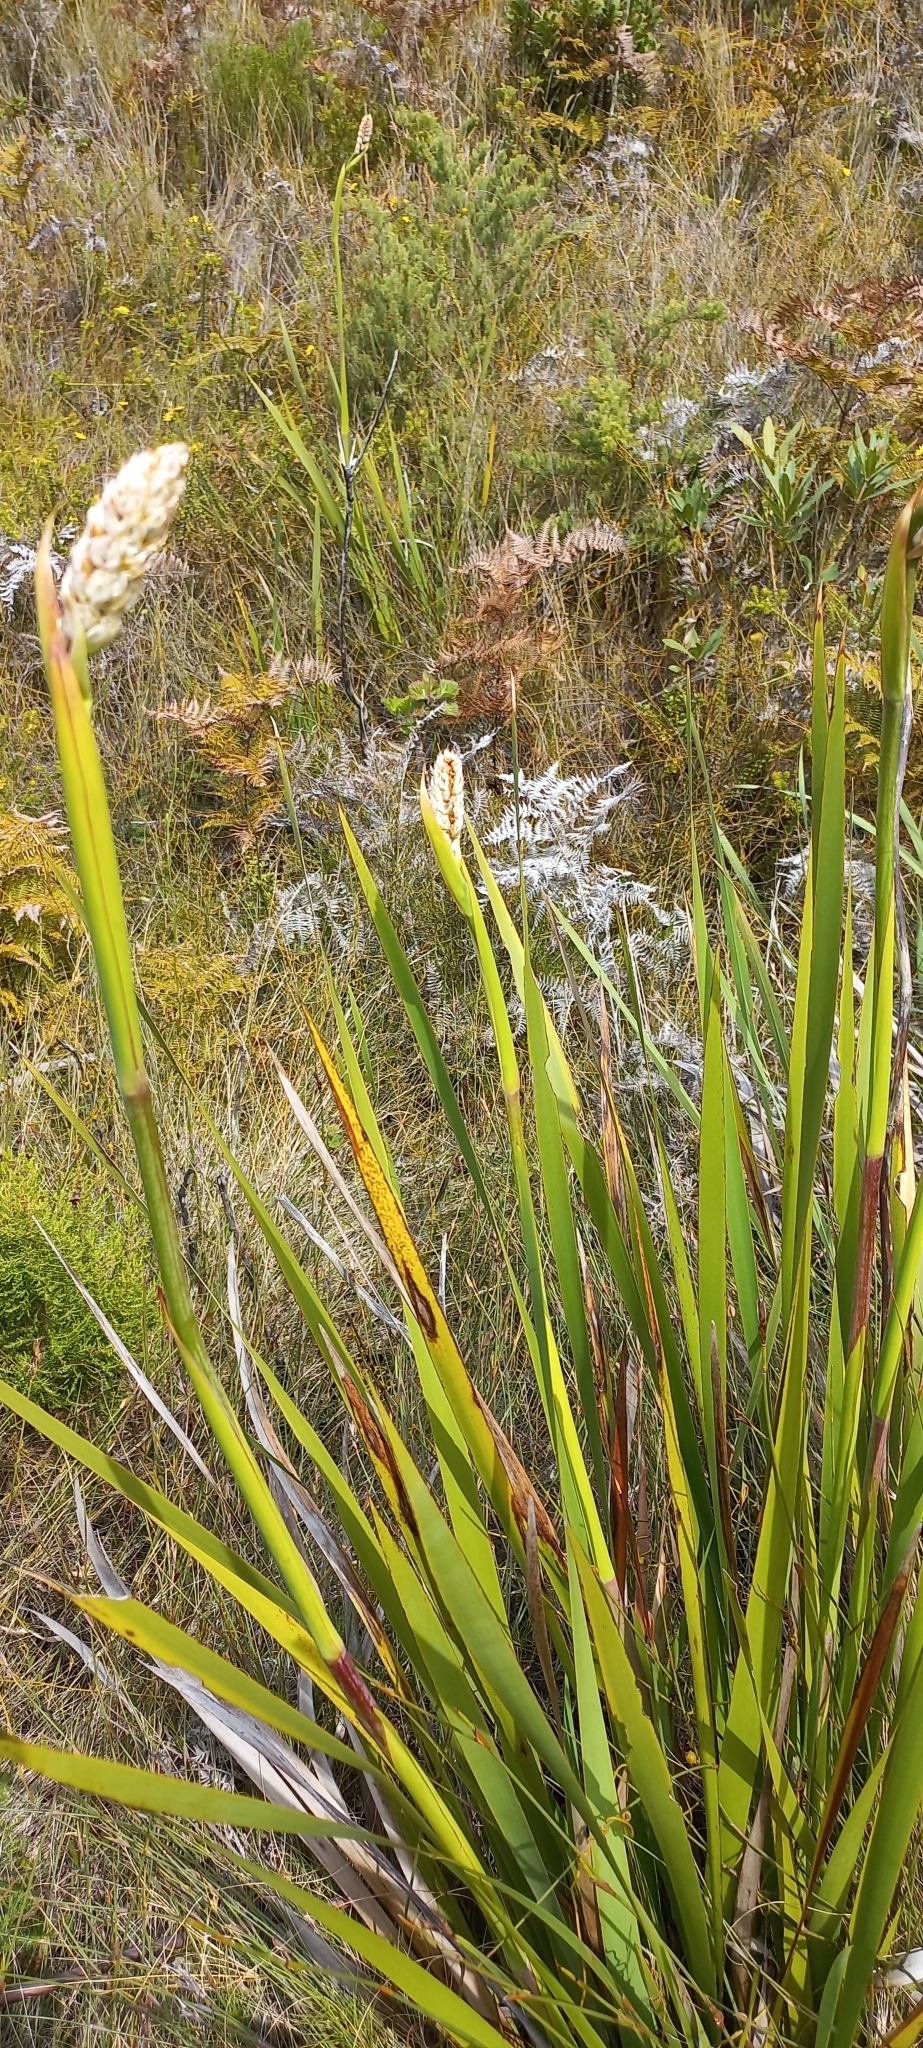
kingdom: Plantae
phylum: Tracheophyta
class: Liliopsida
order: Asparagales
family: Iridaceae
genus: Aristea
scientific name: Aristea capitata
